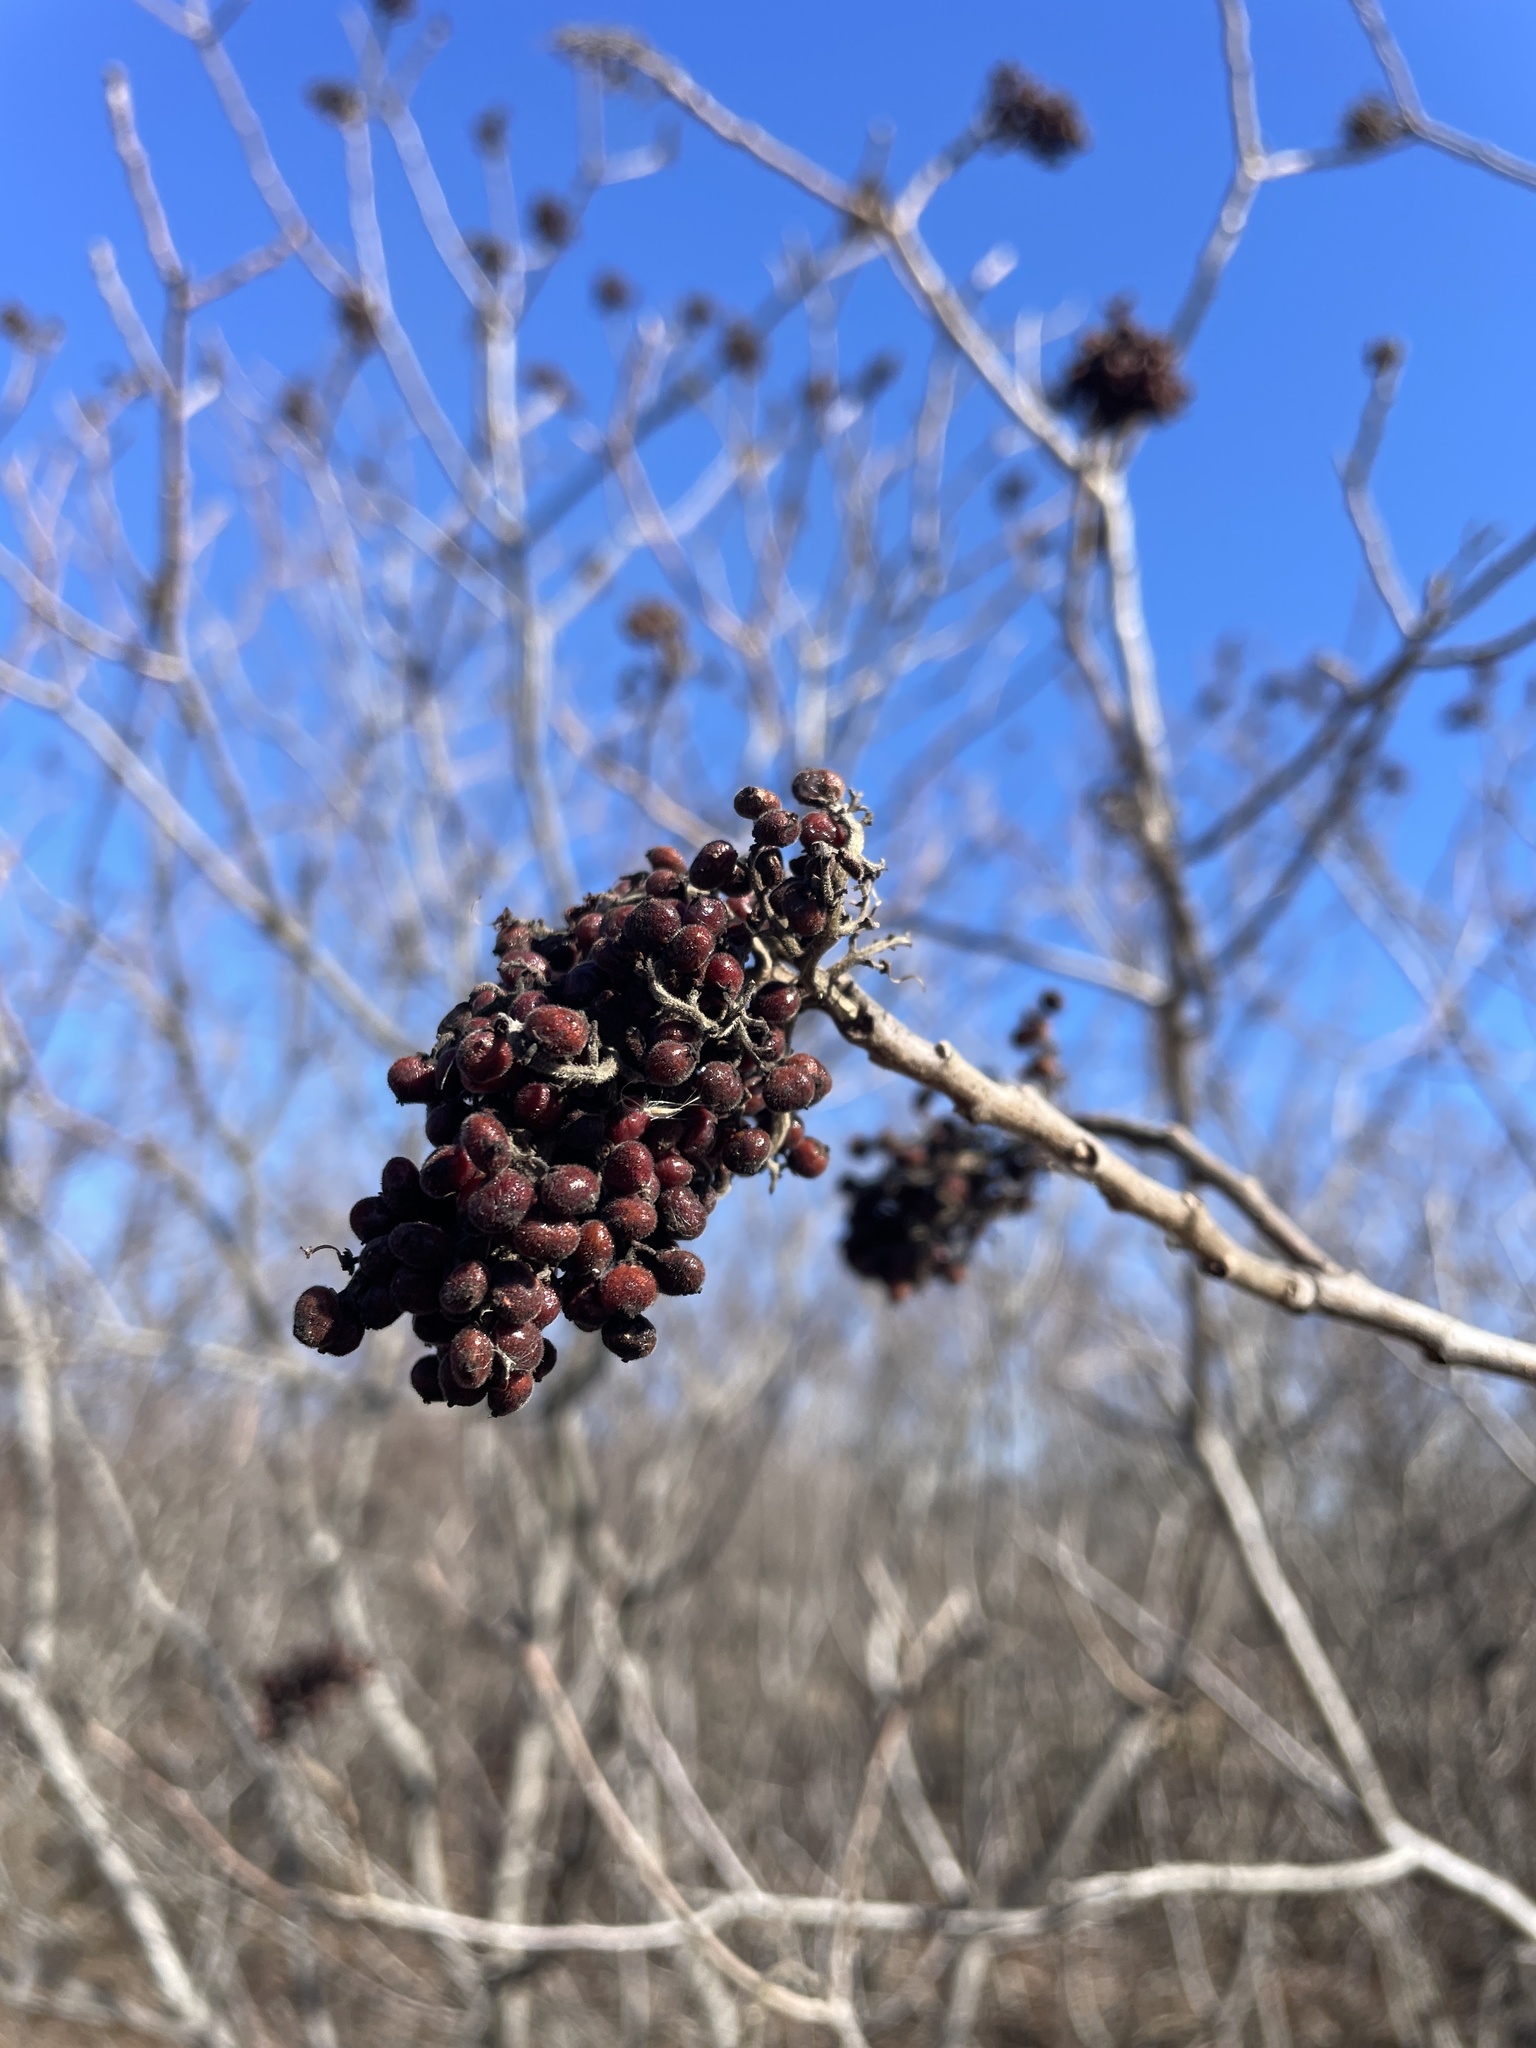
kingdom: Plantae
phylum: Tracheophyta
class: Magnoliopsida
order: Sapindales
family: Anacardiaceae
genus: Rhus
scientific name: Rhus copallina
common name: Shining sumac
